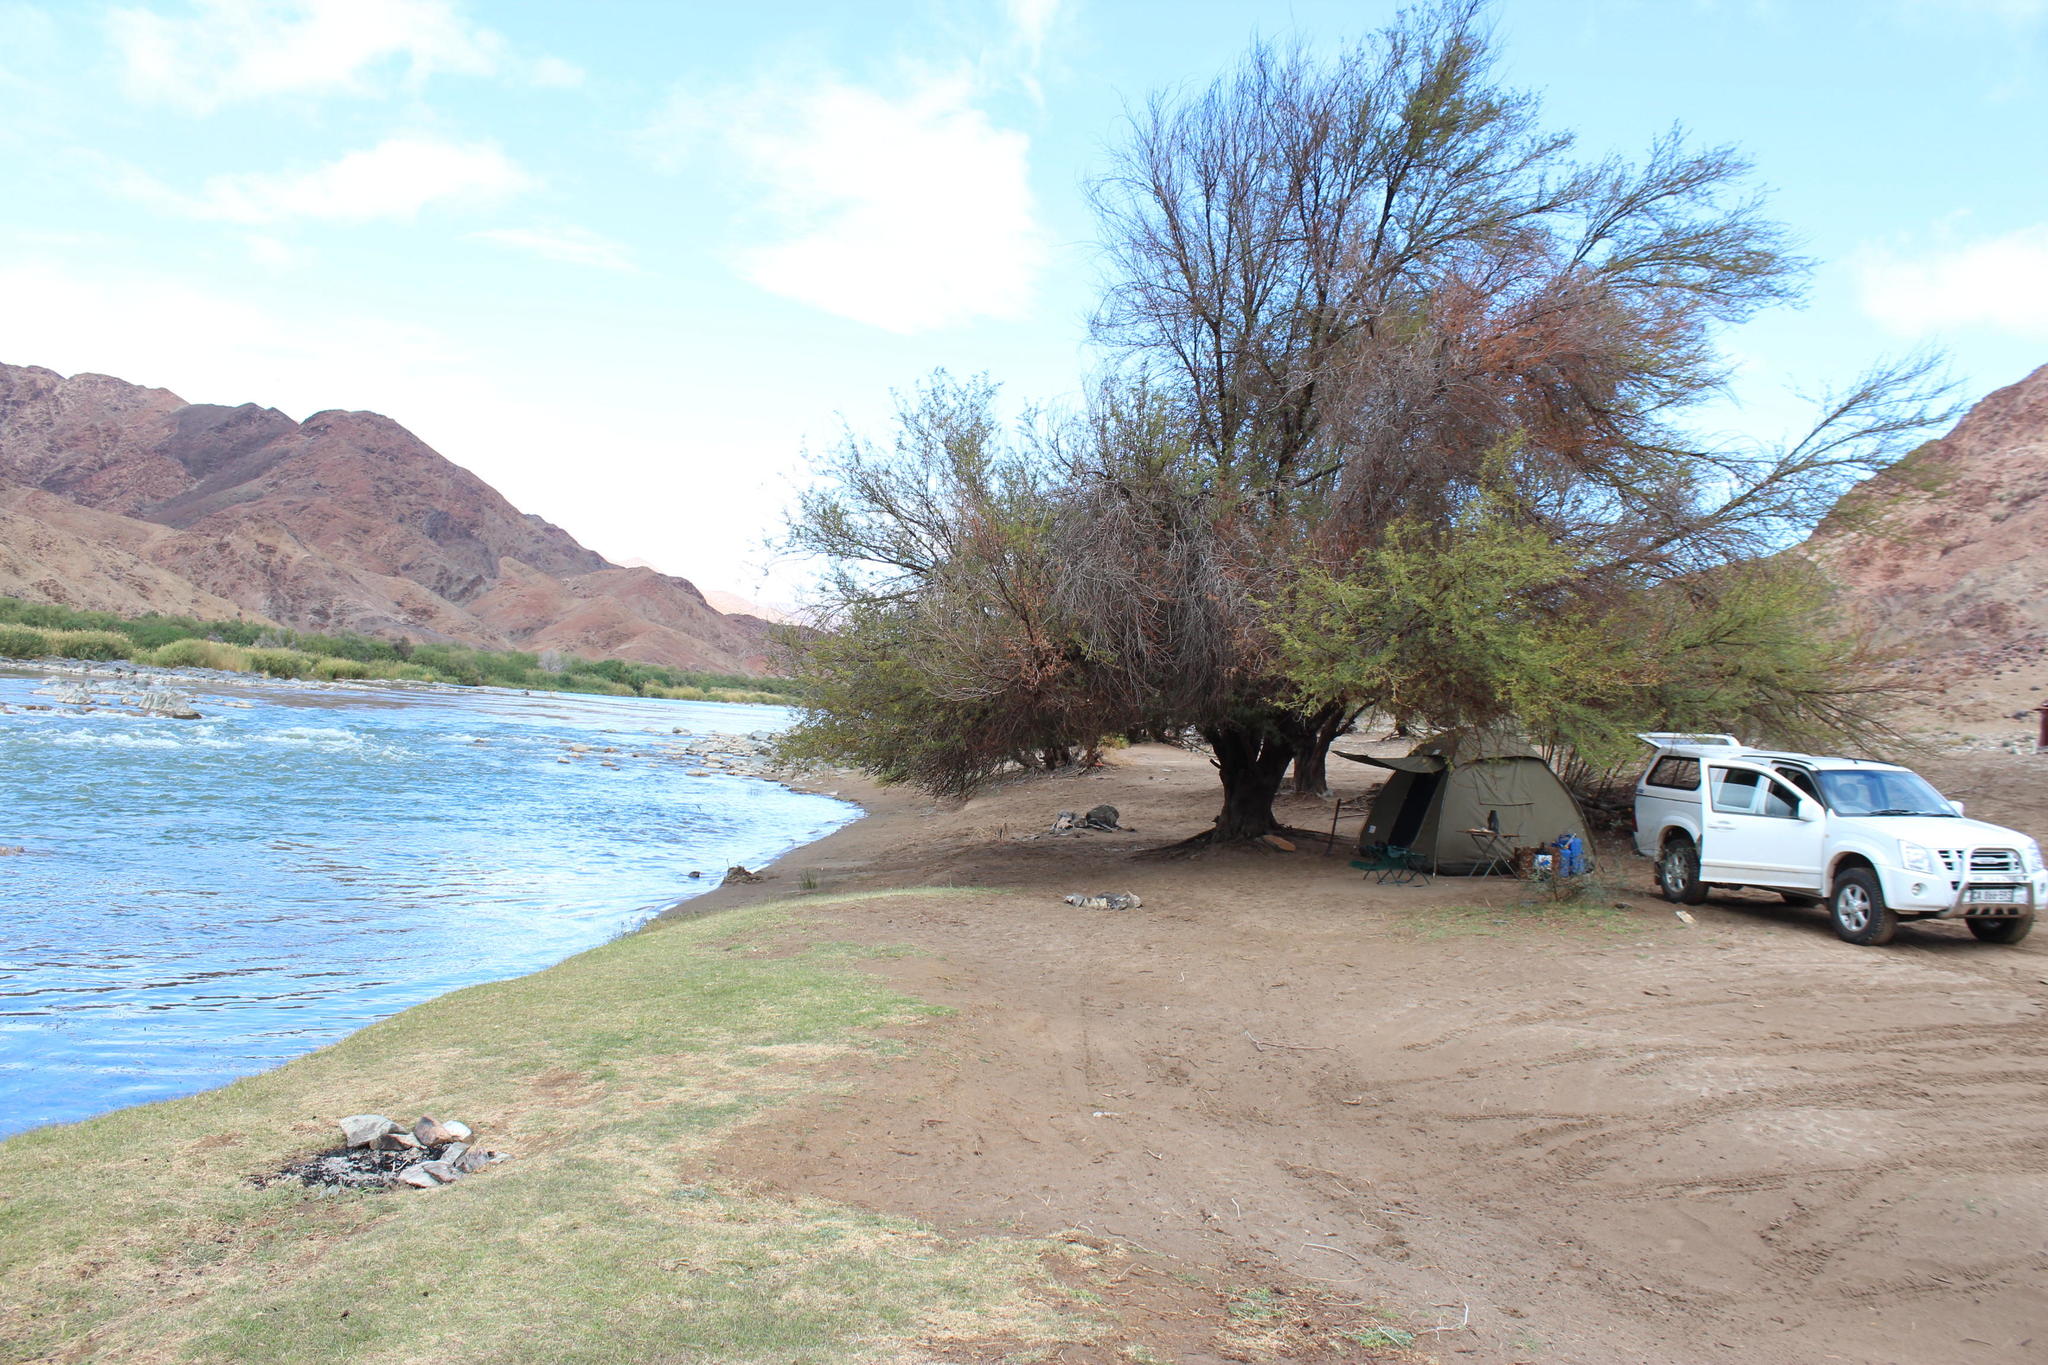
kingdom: Plantae
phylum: Tracheophyta
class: Magnoliopsida
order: Fabales
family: Fabaceae
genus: Vachellia
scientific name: Vachellia karroo
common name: Sweet thorn
